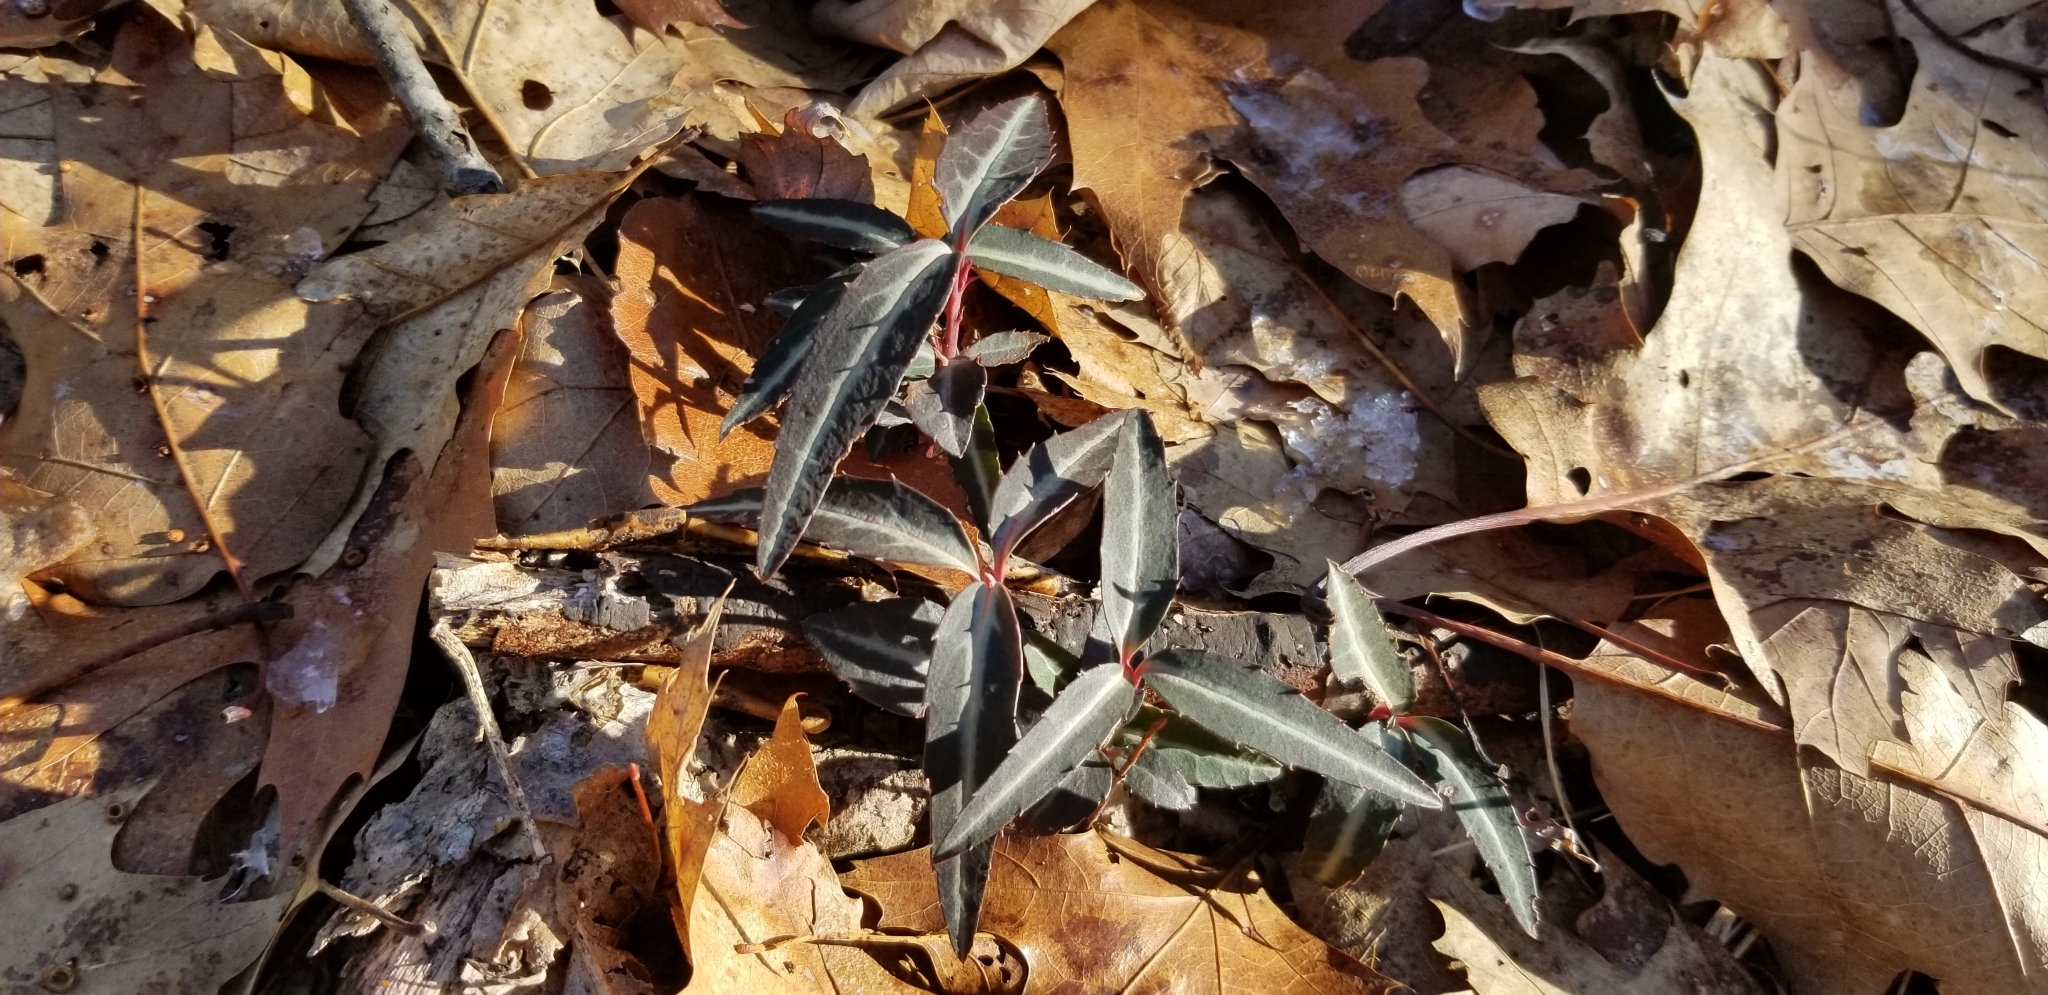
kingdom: Plantae
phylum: Tracheophyta
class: Magnoliopsida
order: Ericales
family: Ericaceae
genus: Chimaphila
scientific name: Chimaphila maculata
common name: Spotted pipsissewa
